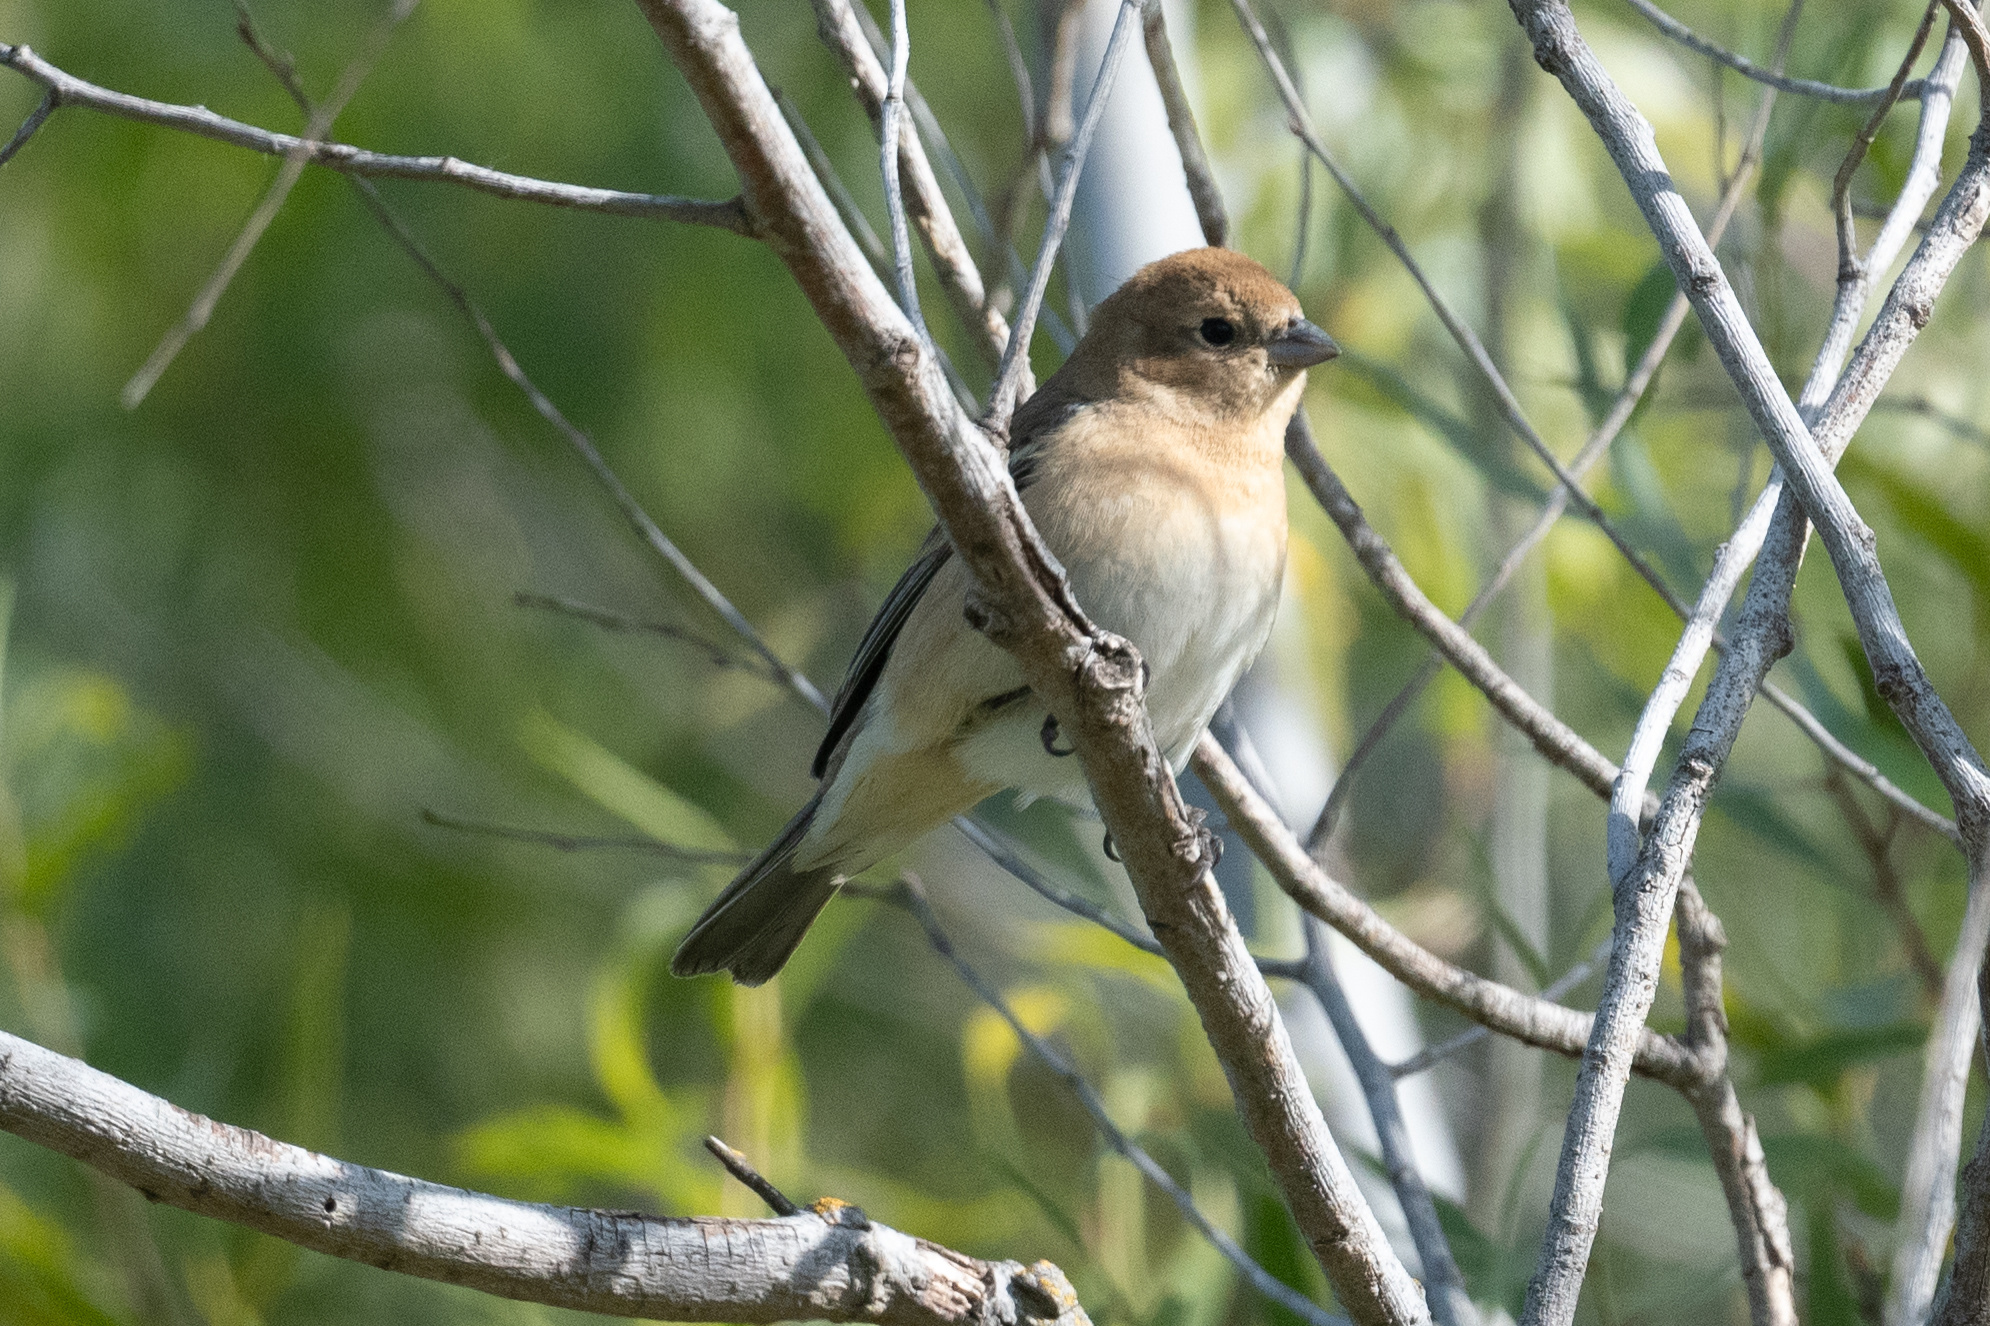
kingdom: Animalia
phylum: Chordata
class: Aves
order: Passeriformes
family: Cardinalidae
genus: Passerina
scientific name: Passerina amoena
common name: Lazuli bunting
